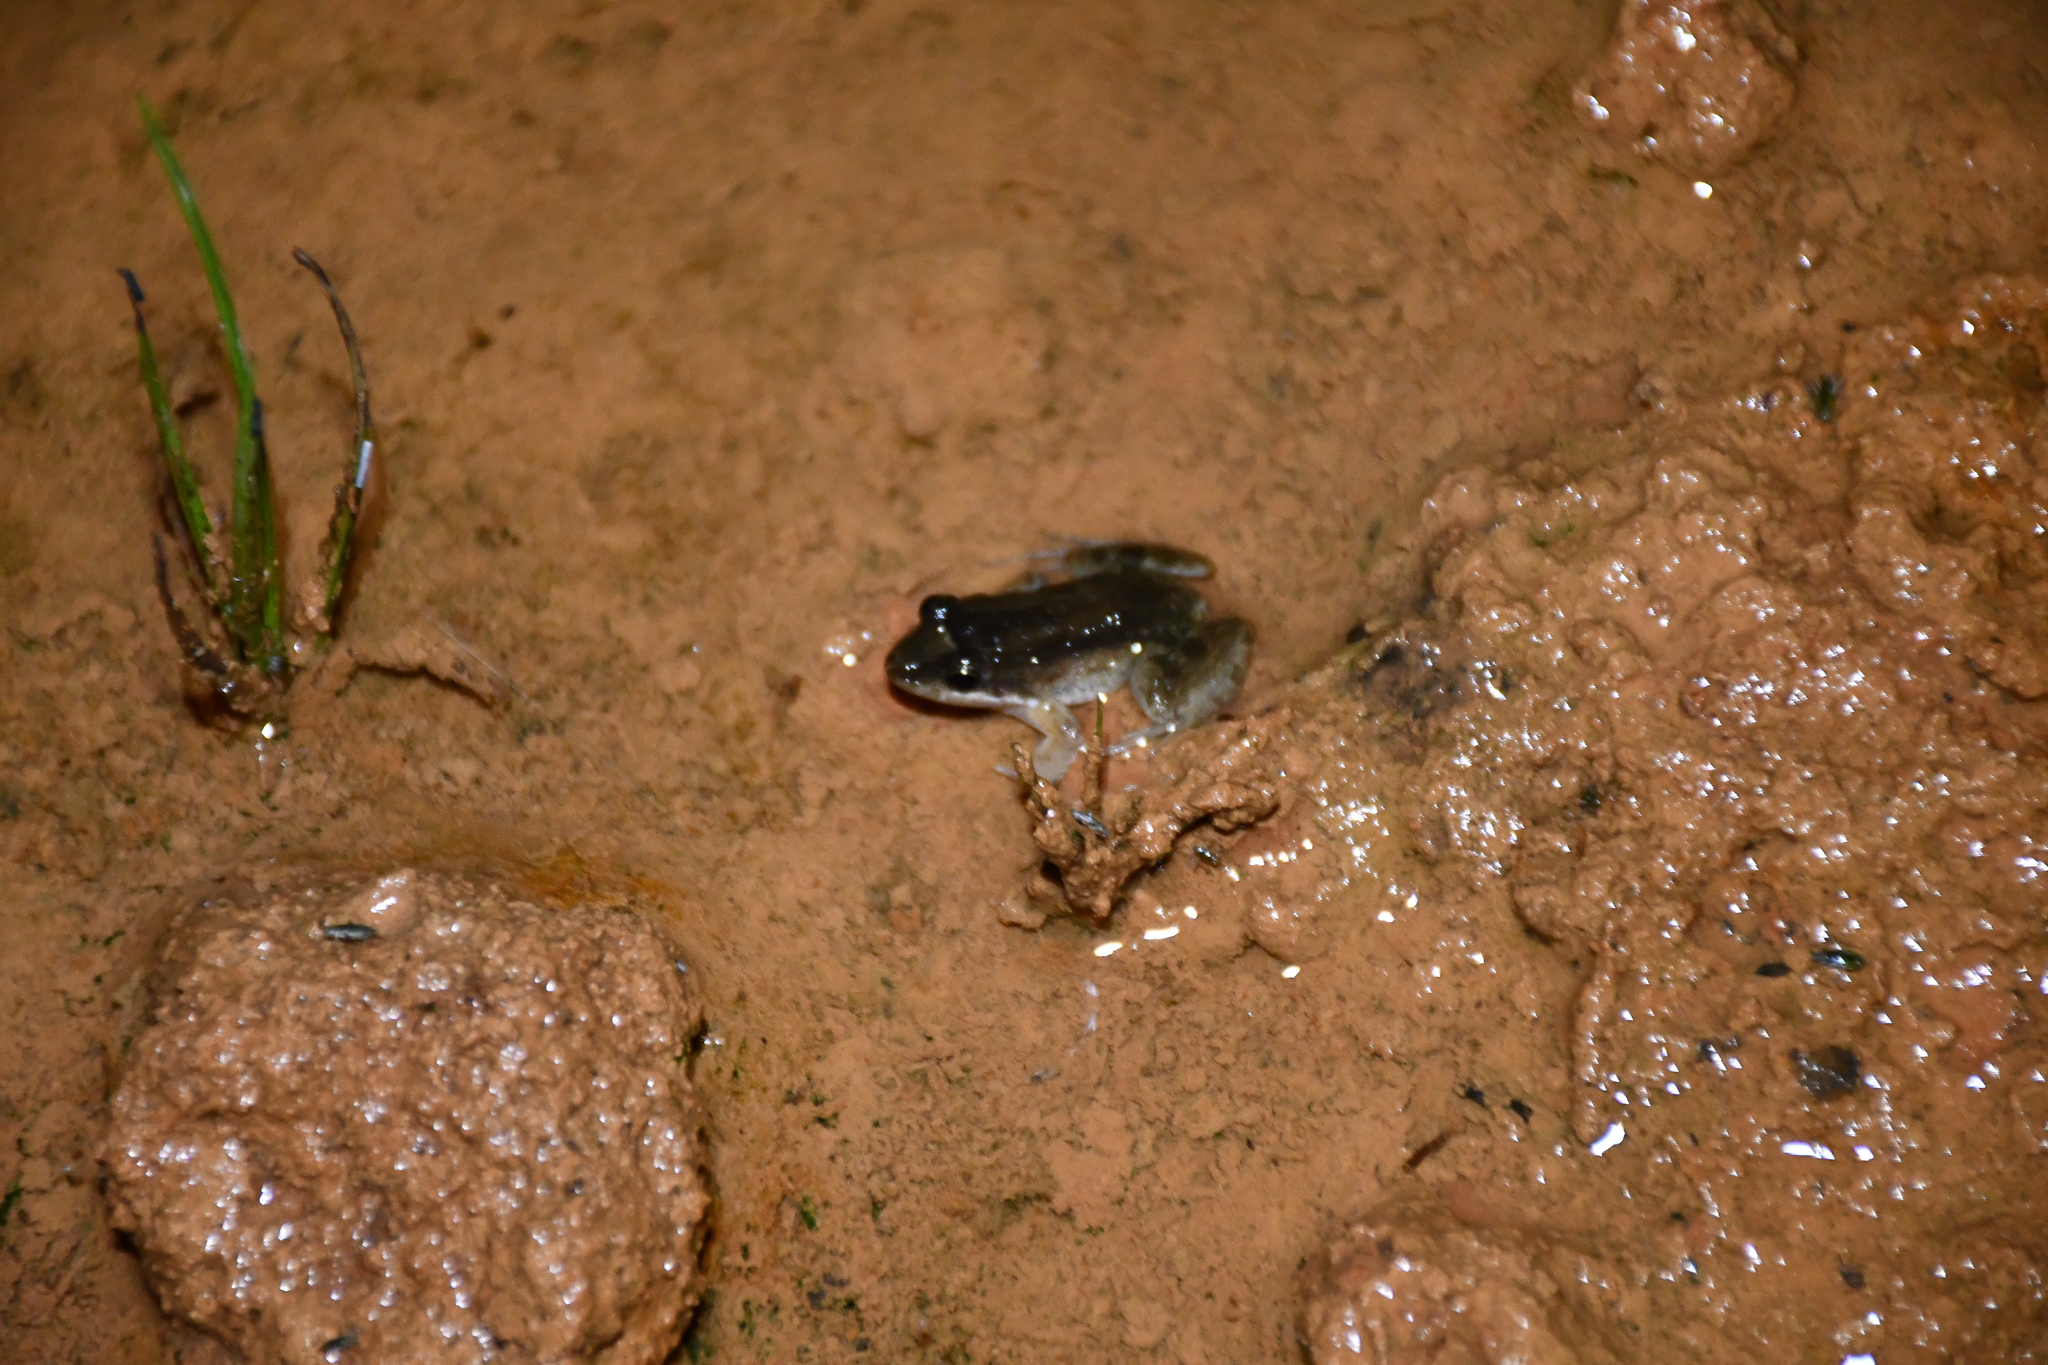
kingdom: Animalia
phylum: Chordata
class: Amphibia
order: Anura
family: Leptodactylidae
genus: Leptodactylus
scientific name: Leptodactylus petersii
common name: Peters' thin-toed frog
